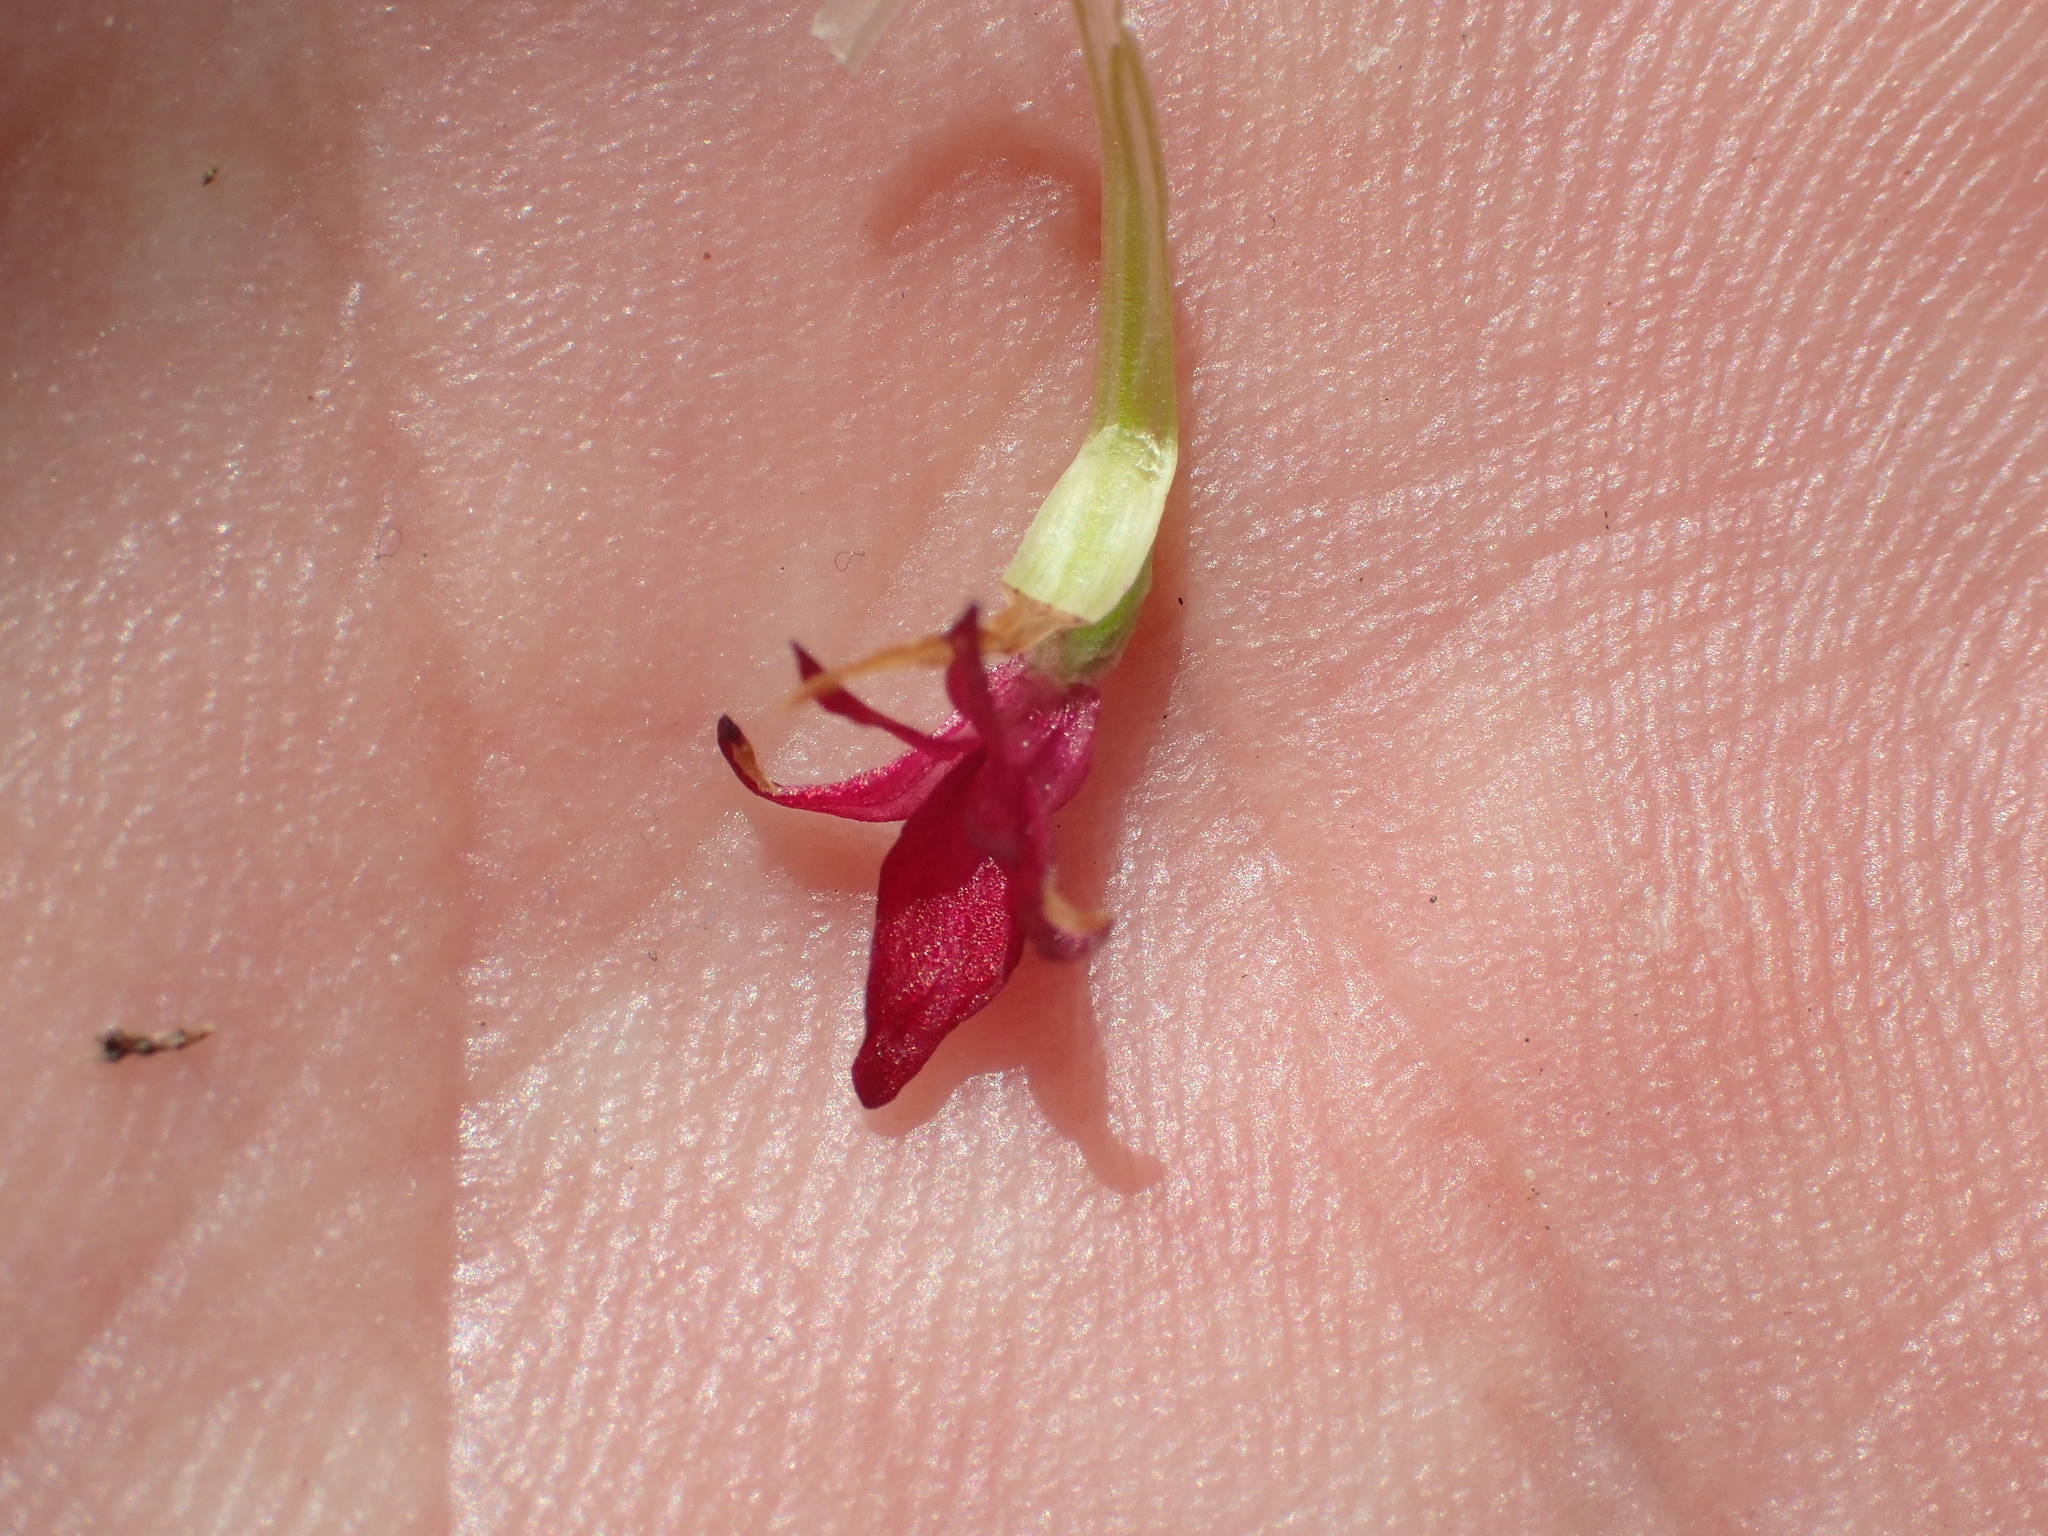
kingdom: Plantae
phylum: Tracheophyta
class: Liliopsida
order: Asparagales
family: Orchidaceae
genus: Gymnadenia
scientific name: Gymnadenia rhellicani
